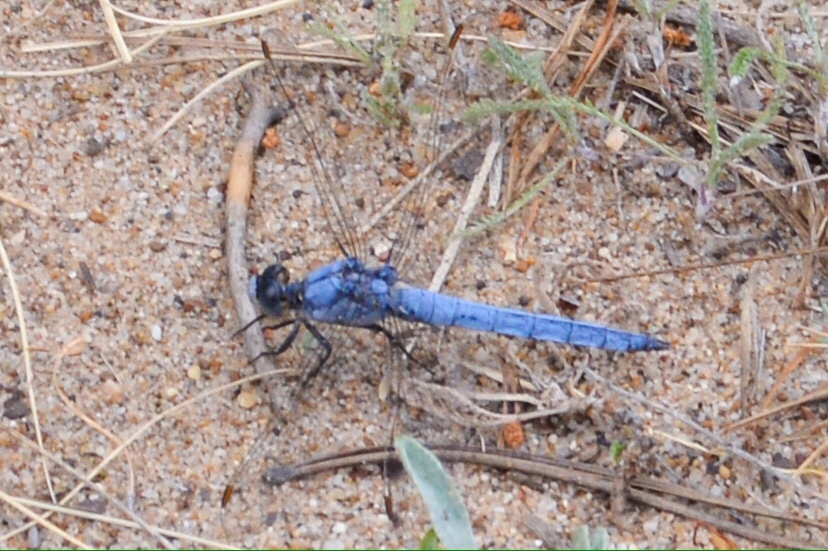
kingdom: Animalia
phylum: Arthropoda
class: Insecta
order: Odonata
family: Libellulidae
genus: Orthetrum
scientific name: Orthetrum brunneum
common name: Southern skimmer
